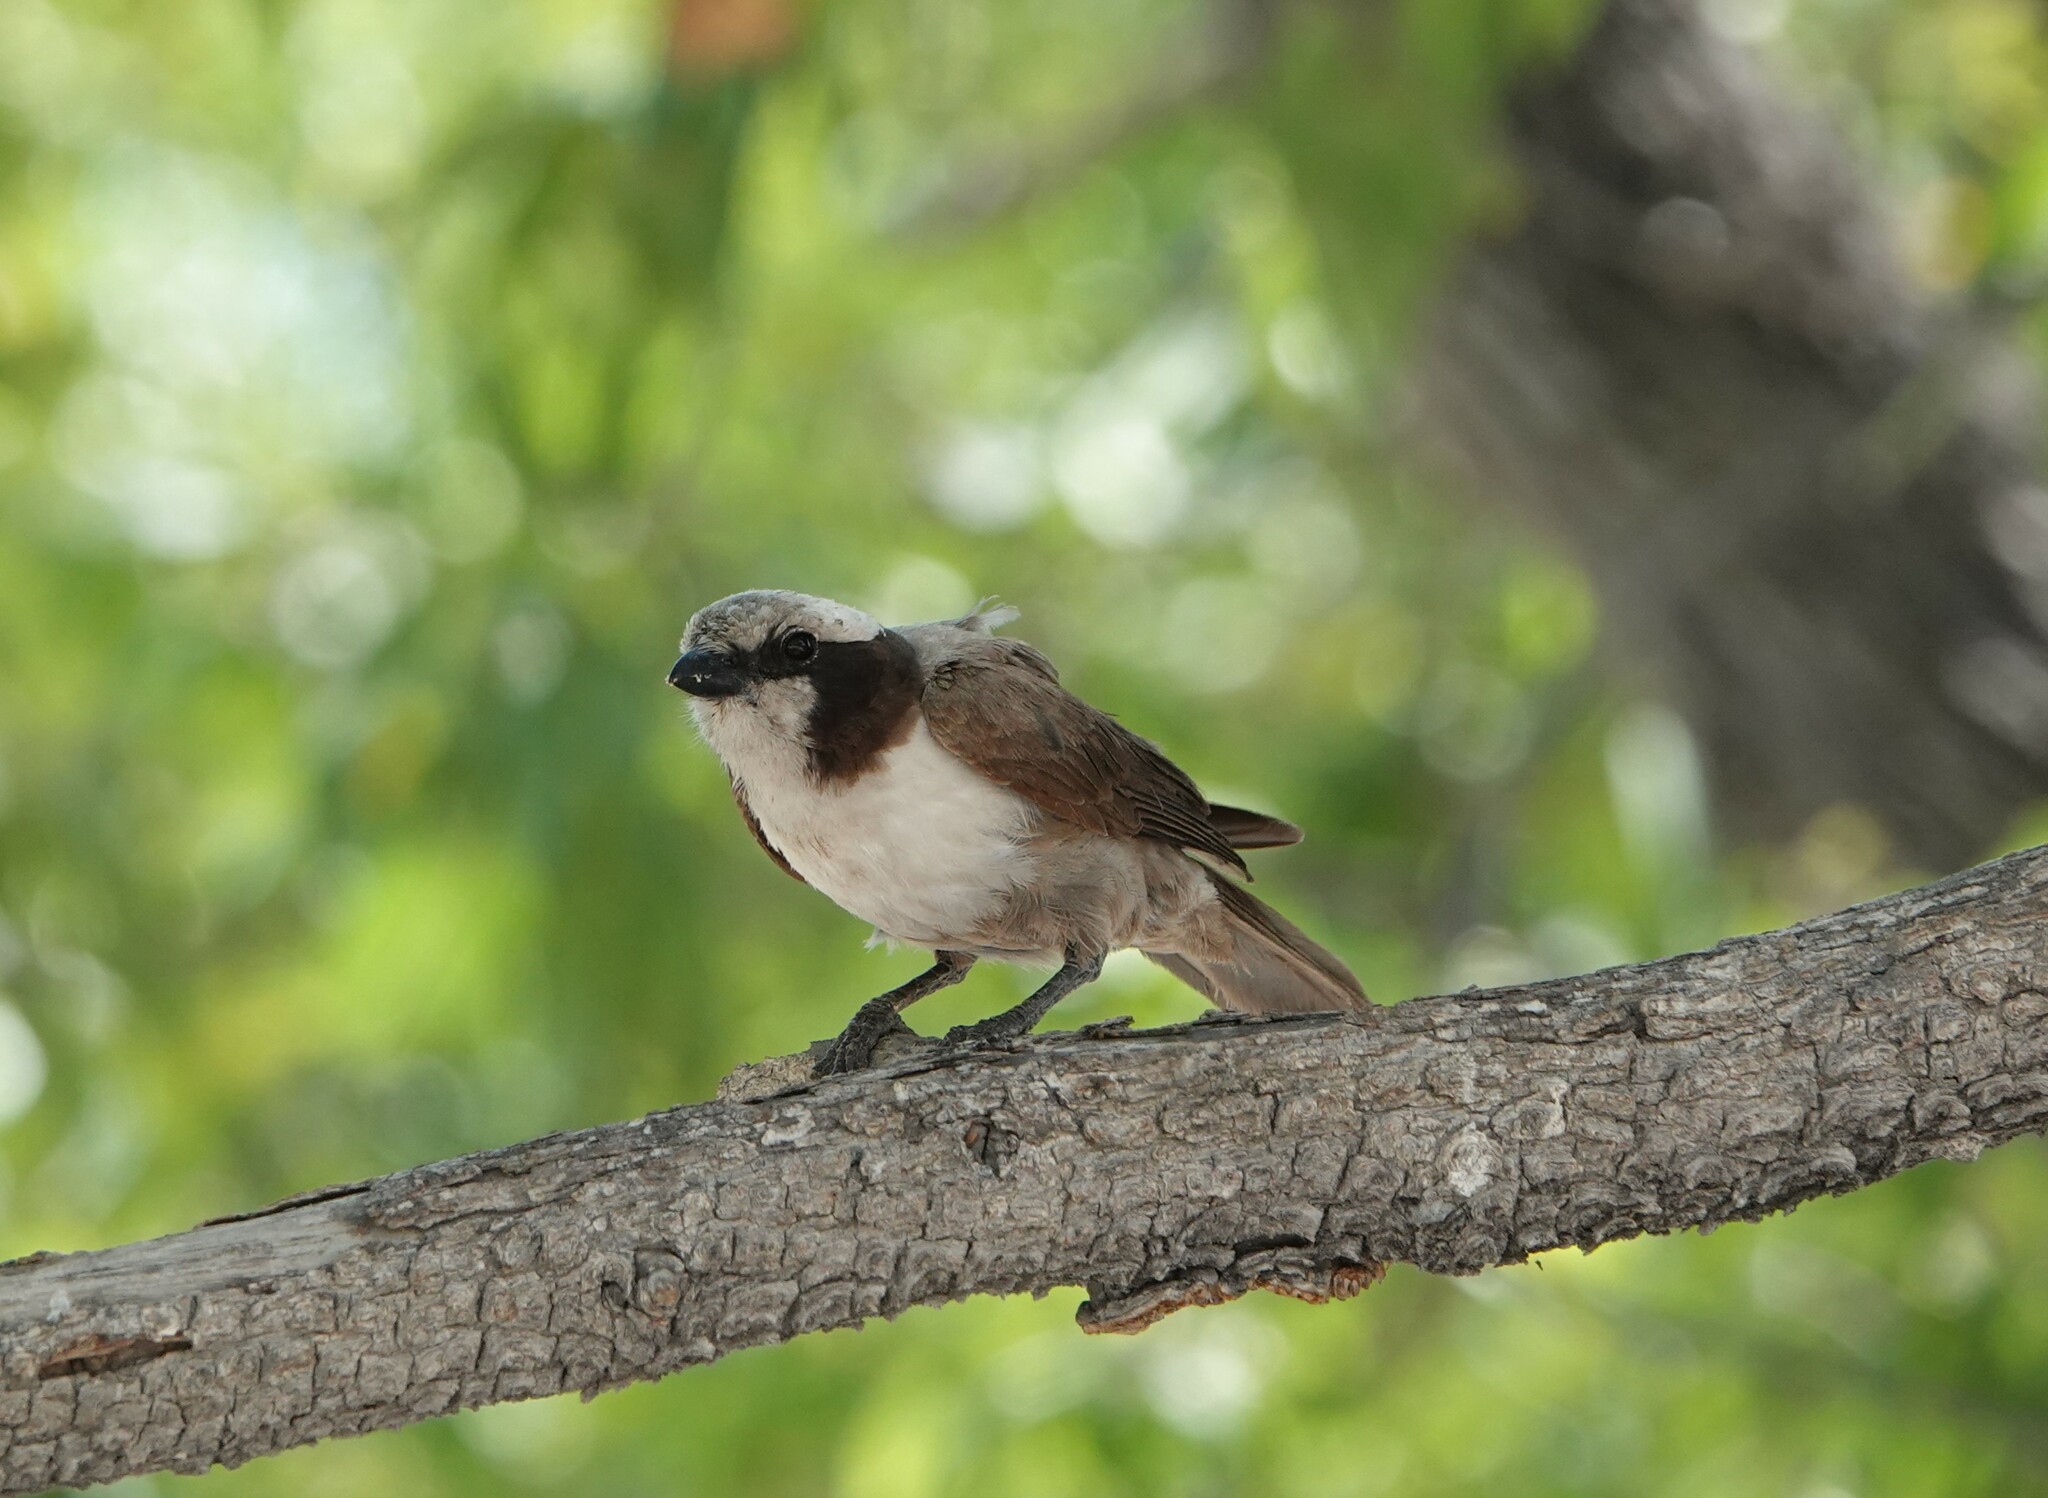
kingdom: Animalia
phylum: Chordata
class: Aves
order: Passeriformes
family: Laniidae
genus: Eurocephalus
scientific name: Eurocephalus anguitimens
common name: Southern white-crowned shrike
